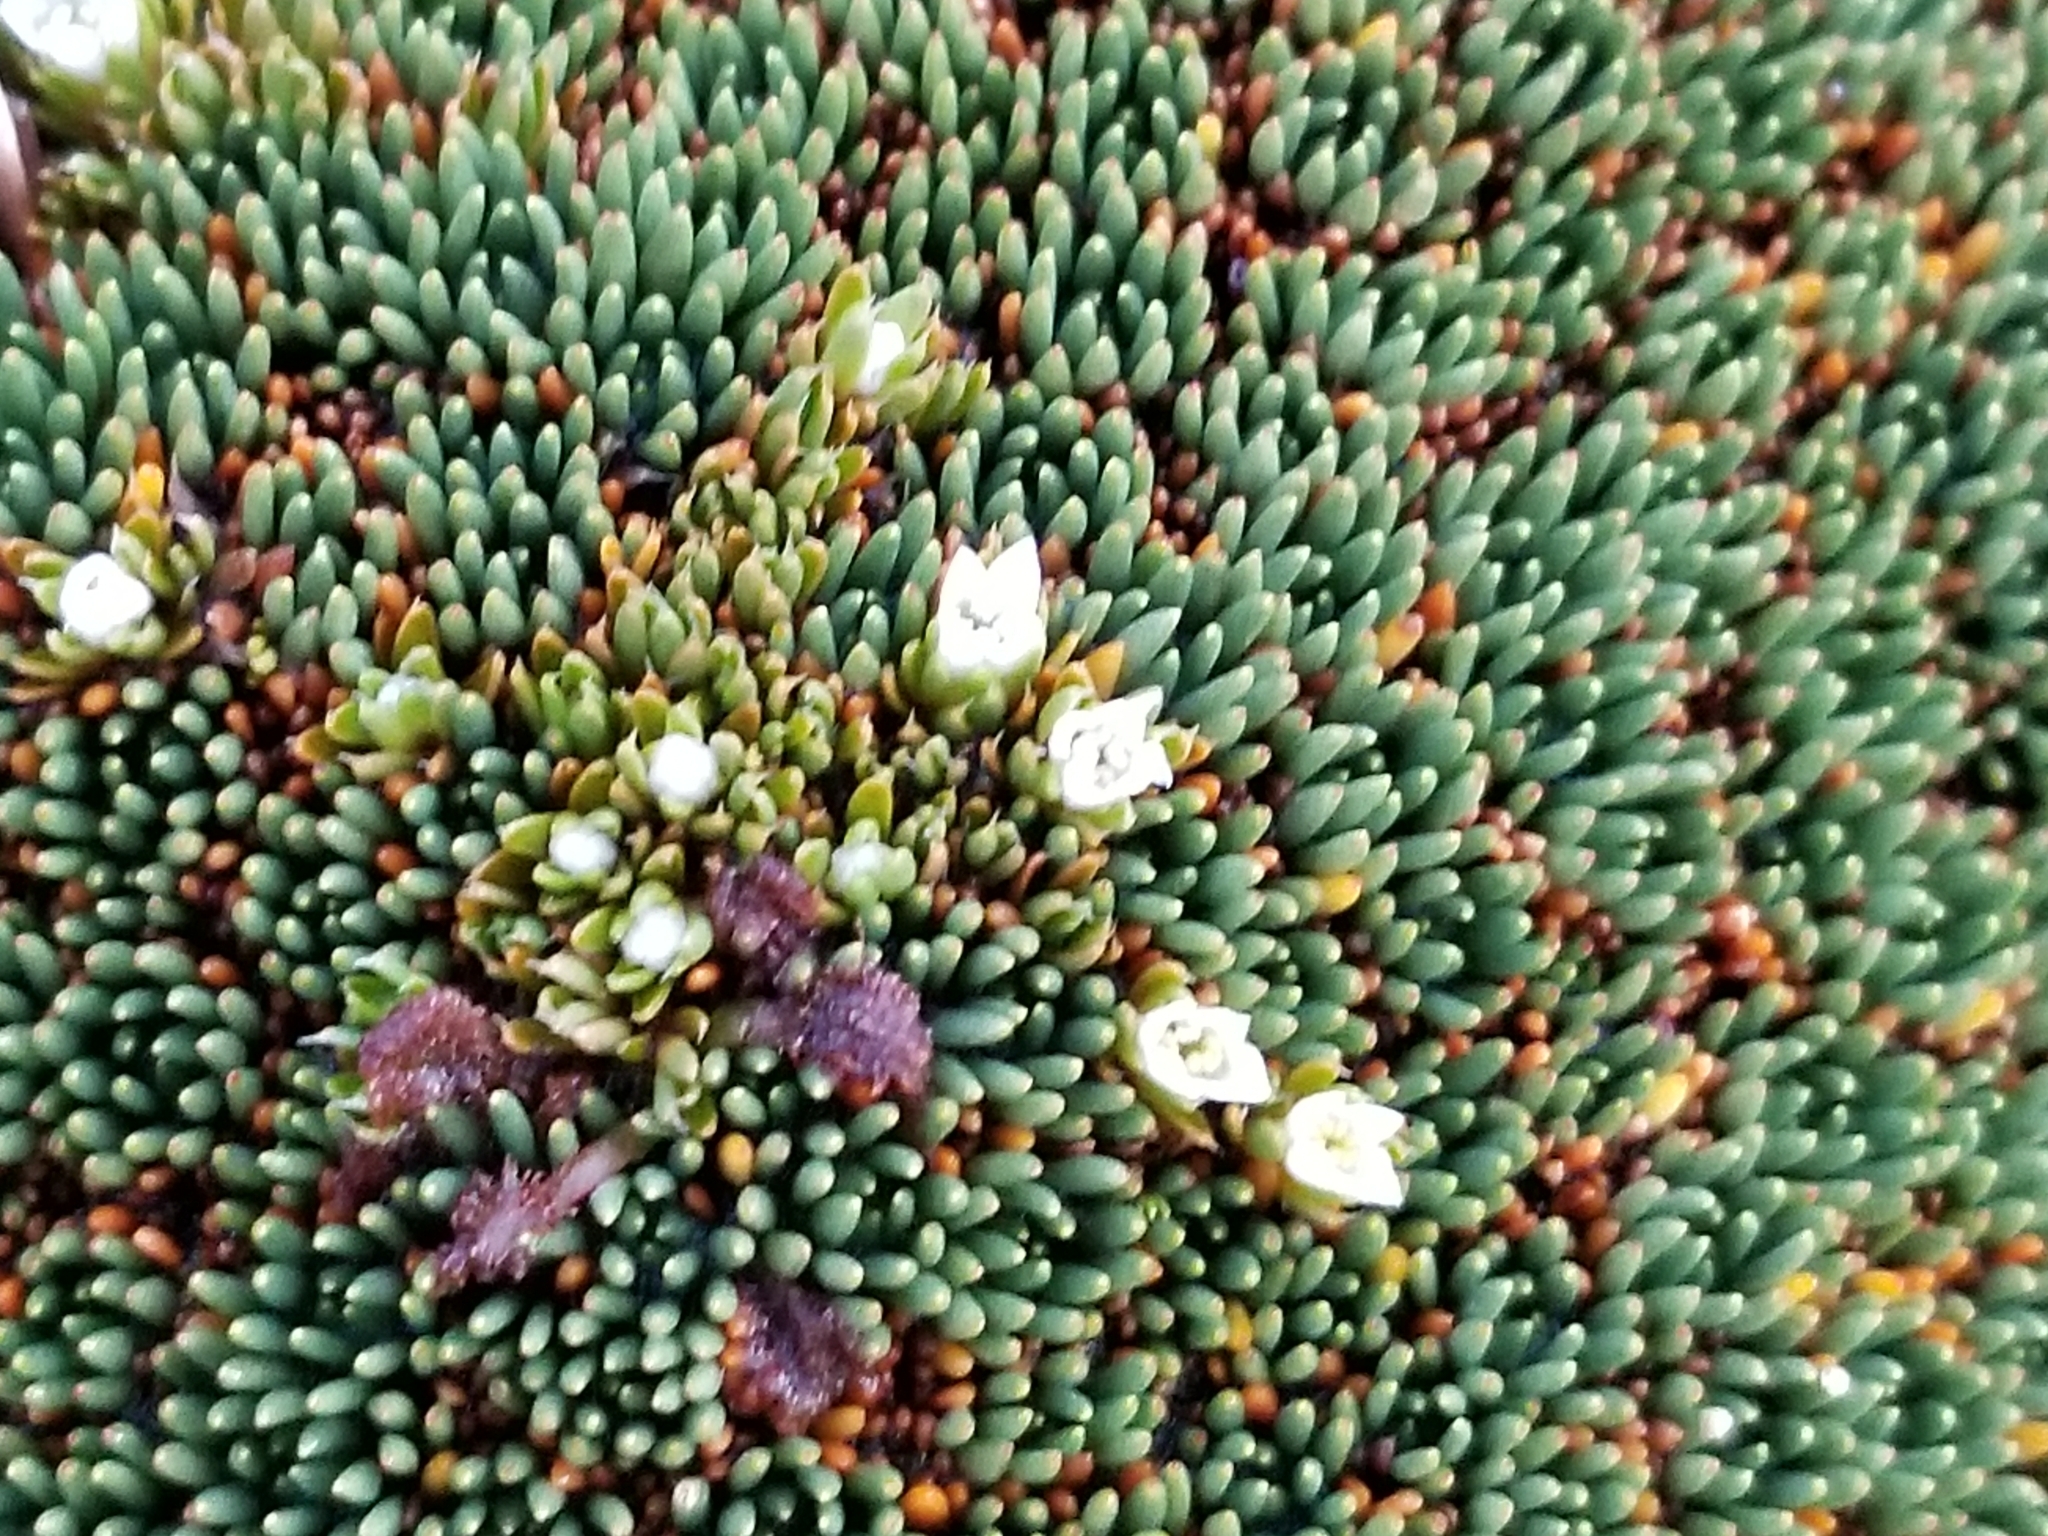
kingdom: Plantae
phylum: Tracheophyta
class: Magnoliopsida
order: Gentianales
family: Loganiaceae
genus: Schizacme
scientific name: Schizacme novae-zelandiae
